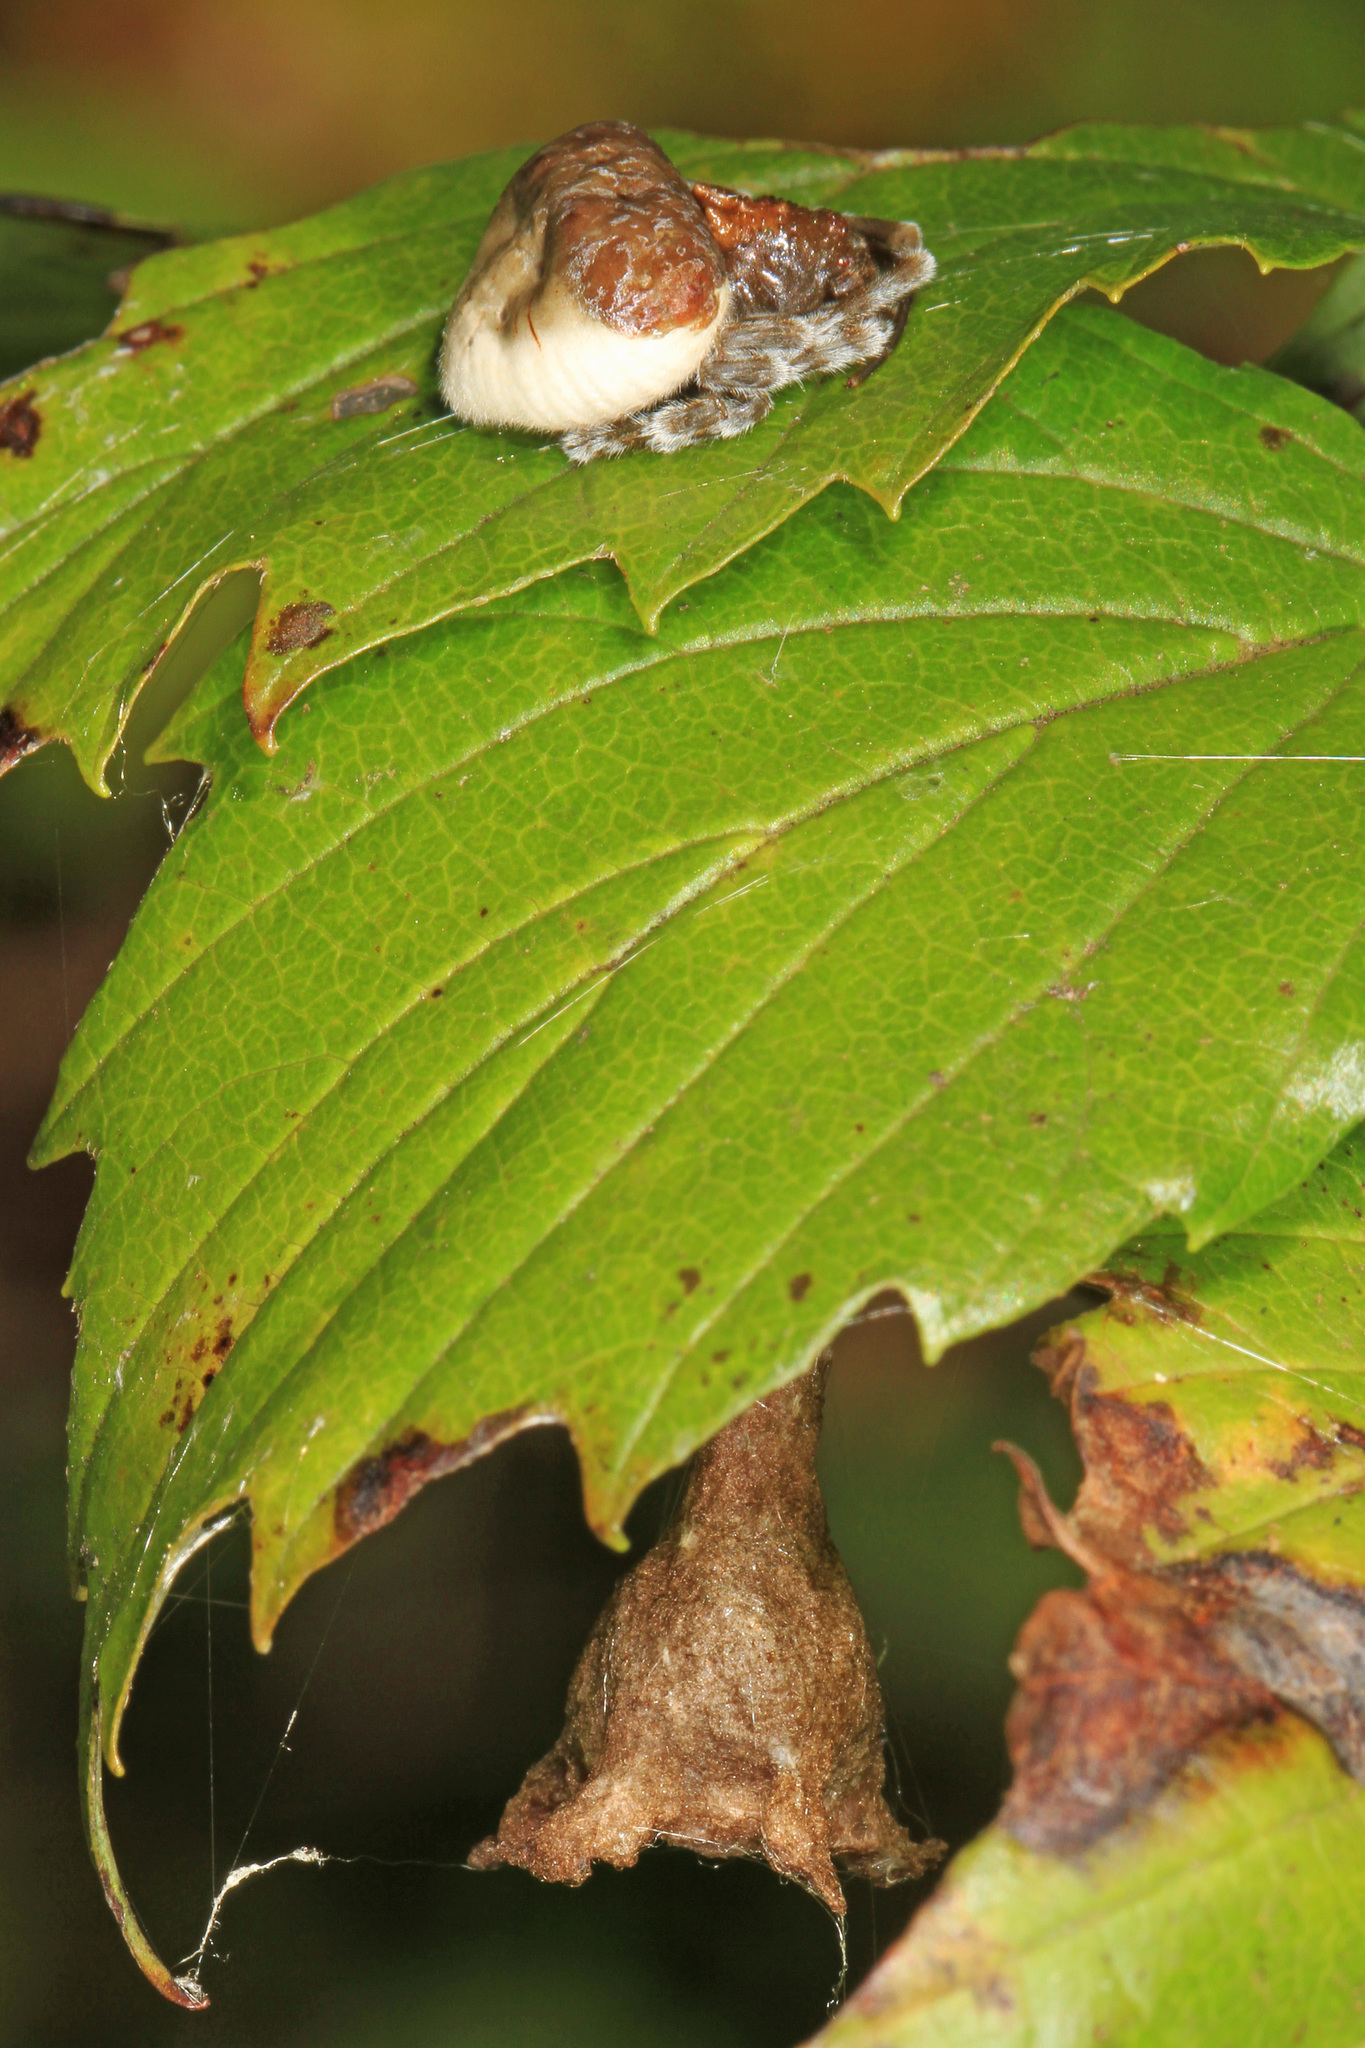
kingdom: Animalia
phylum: Arthropoda
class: Arachnida
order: Araneae
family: Araneidae
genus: Mastophora
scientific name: Mastophora phrynosoma
